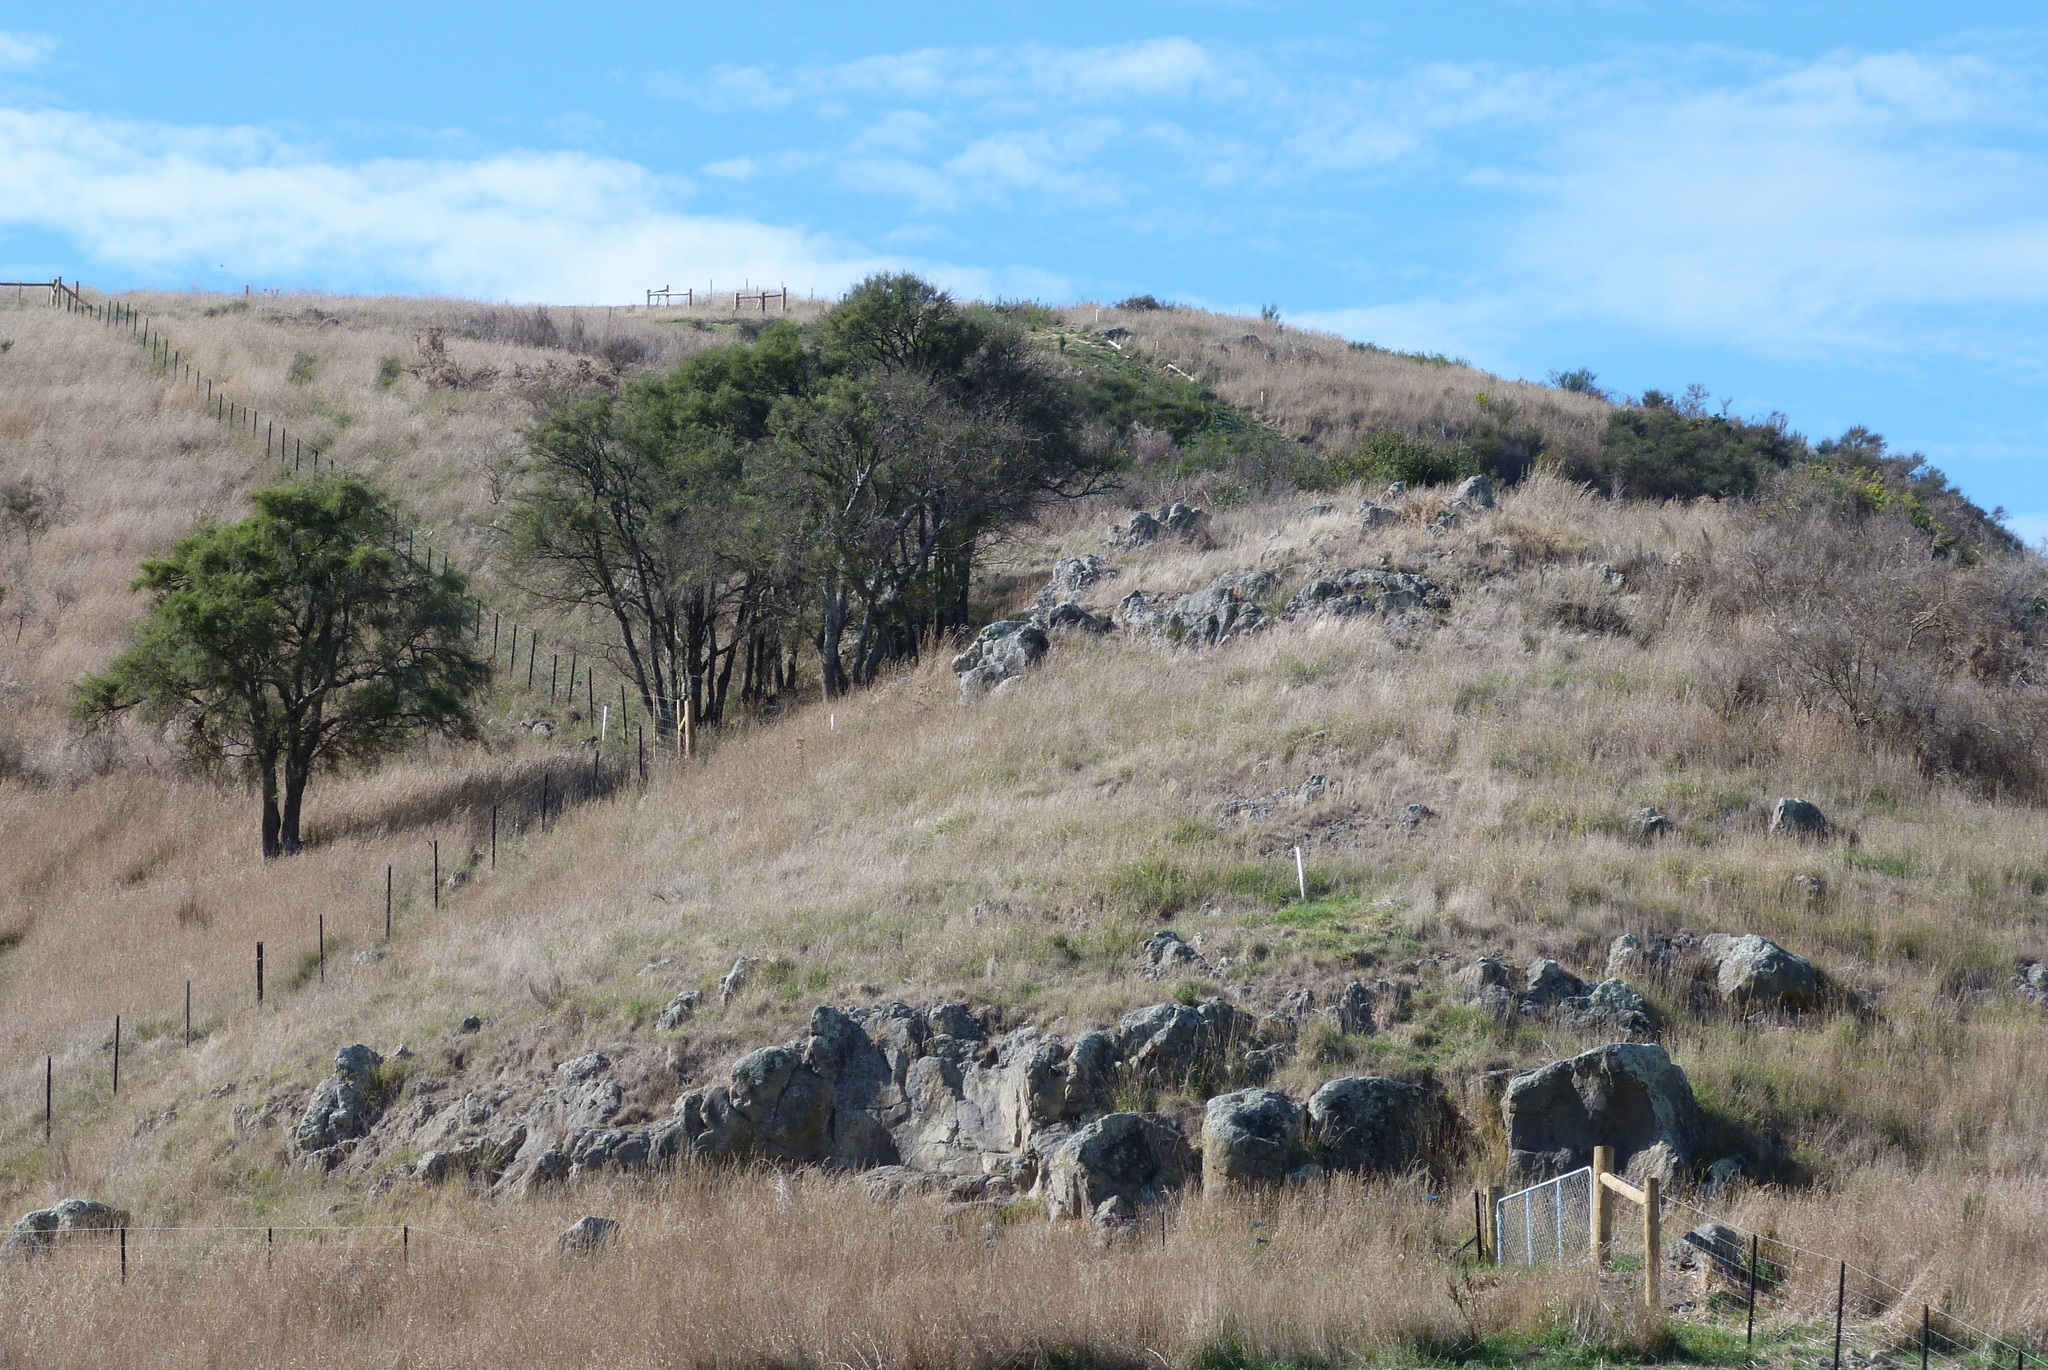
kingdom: Plantae
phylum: Tracheophyta
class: Magnoliopsida
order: Fabales
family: Fabaceae
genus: Sophora
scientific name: Sophora microphylla
